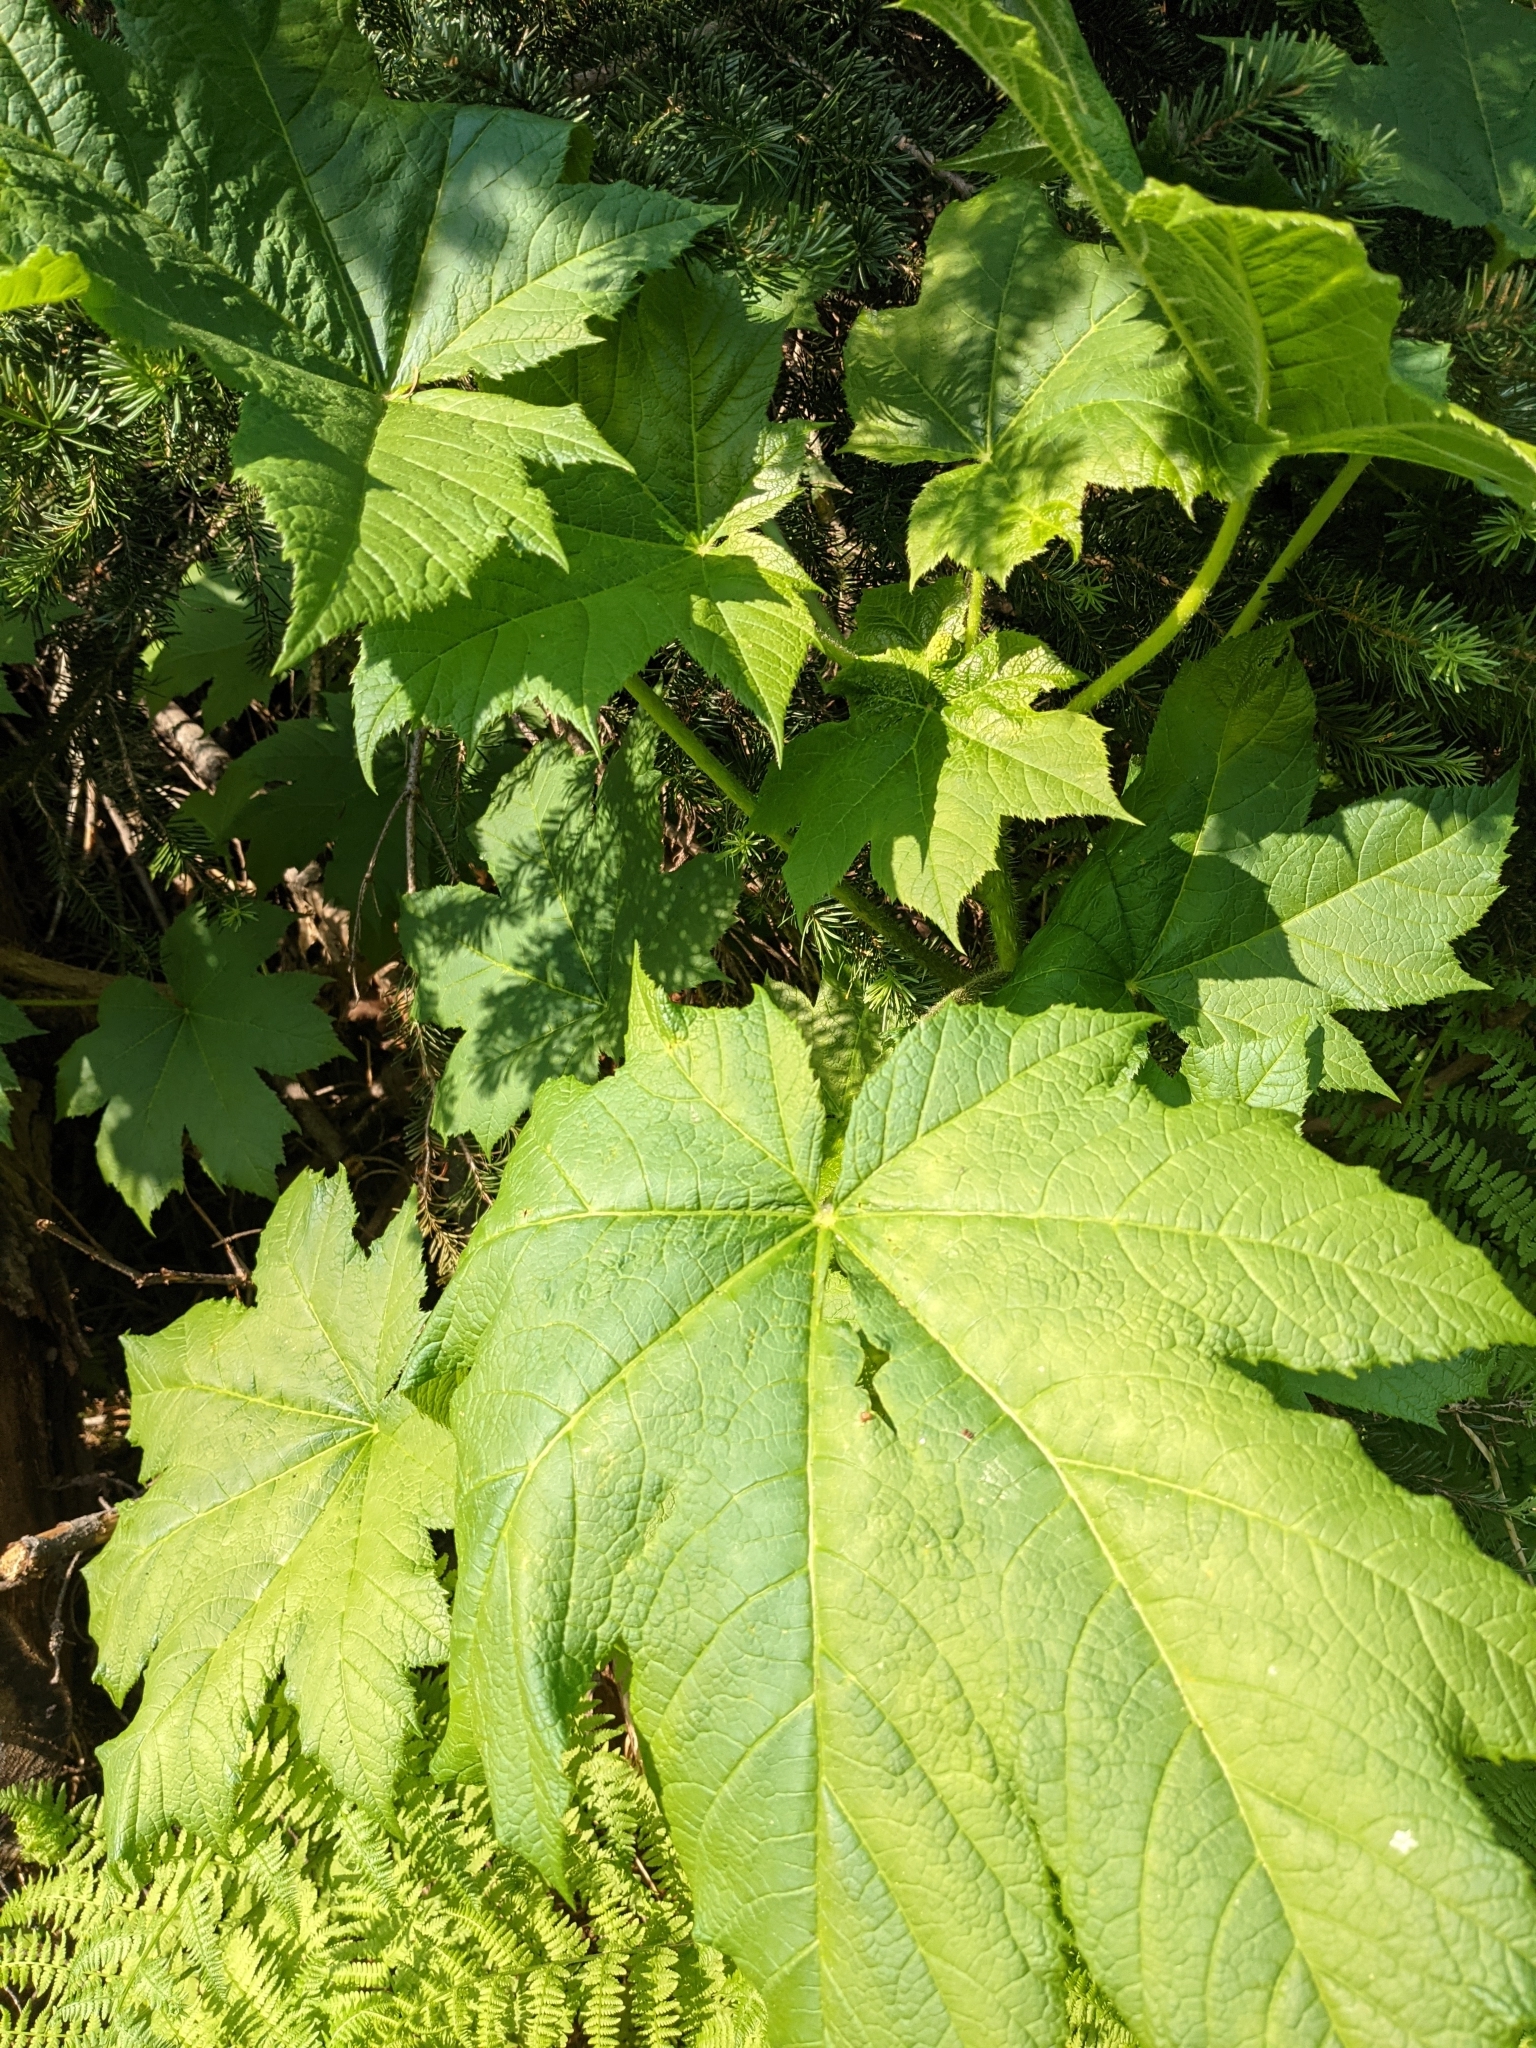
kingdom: Plantae
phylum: Tracheophyta
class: Magnoliopsida
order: Apiales
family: Araliaceae
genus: Oplopanax
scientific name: Oplopanax horridus
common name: Devil's walking-stick
